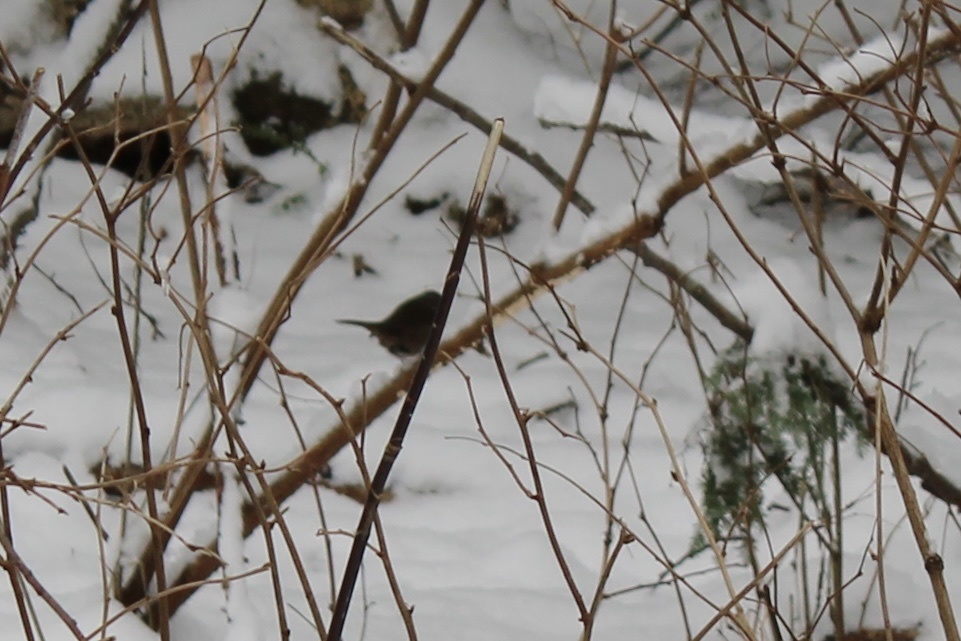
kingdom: Animalia
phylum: Chordata
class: Aves
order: Passeriformes
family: Troglodytidae
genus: Troglodytes
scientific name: Troglodytes pacificus
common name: Pacific wren
